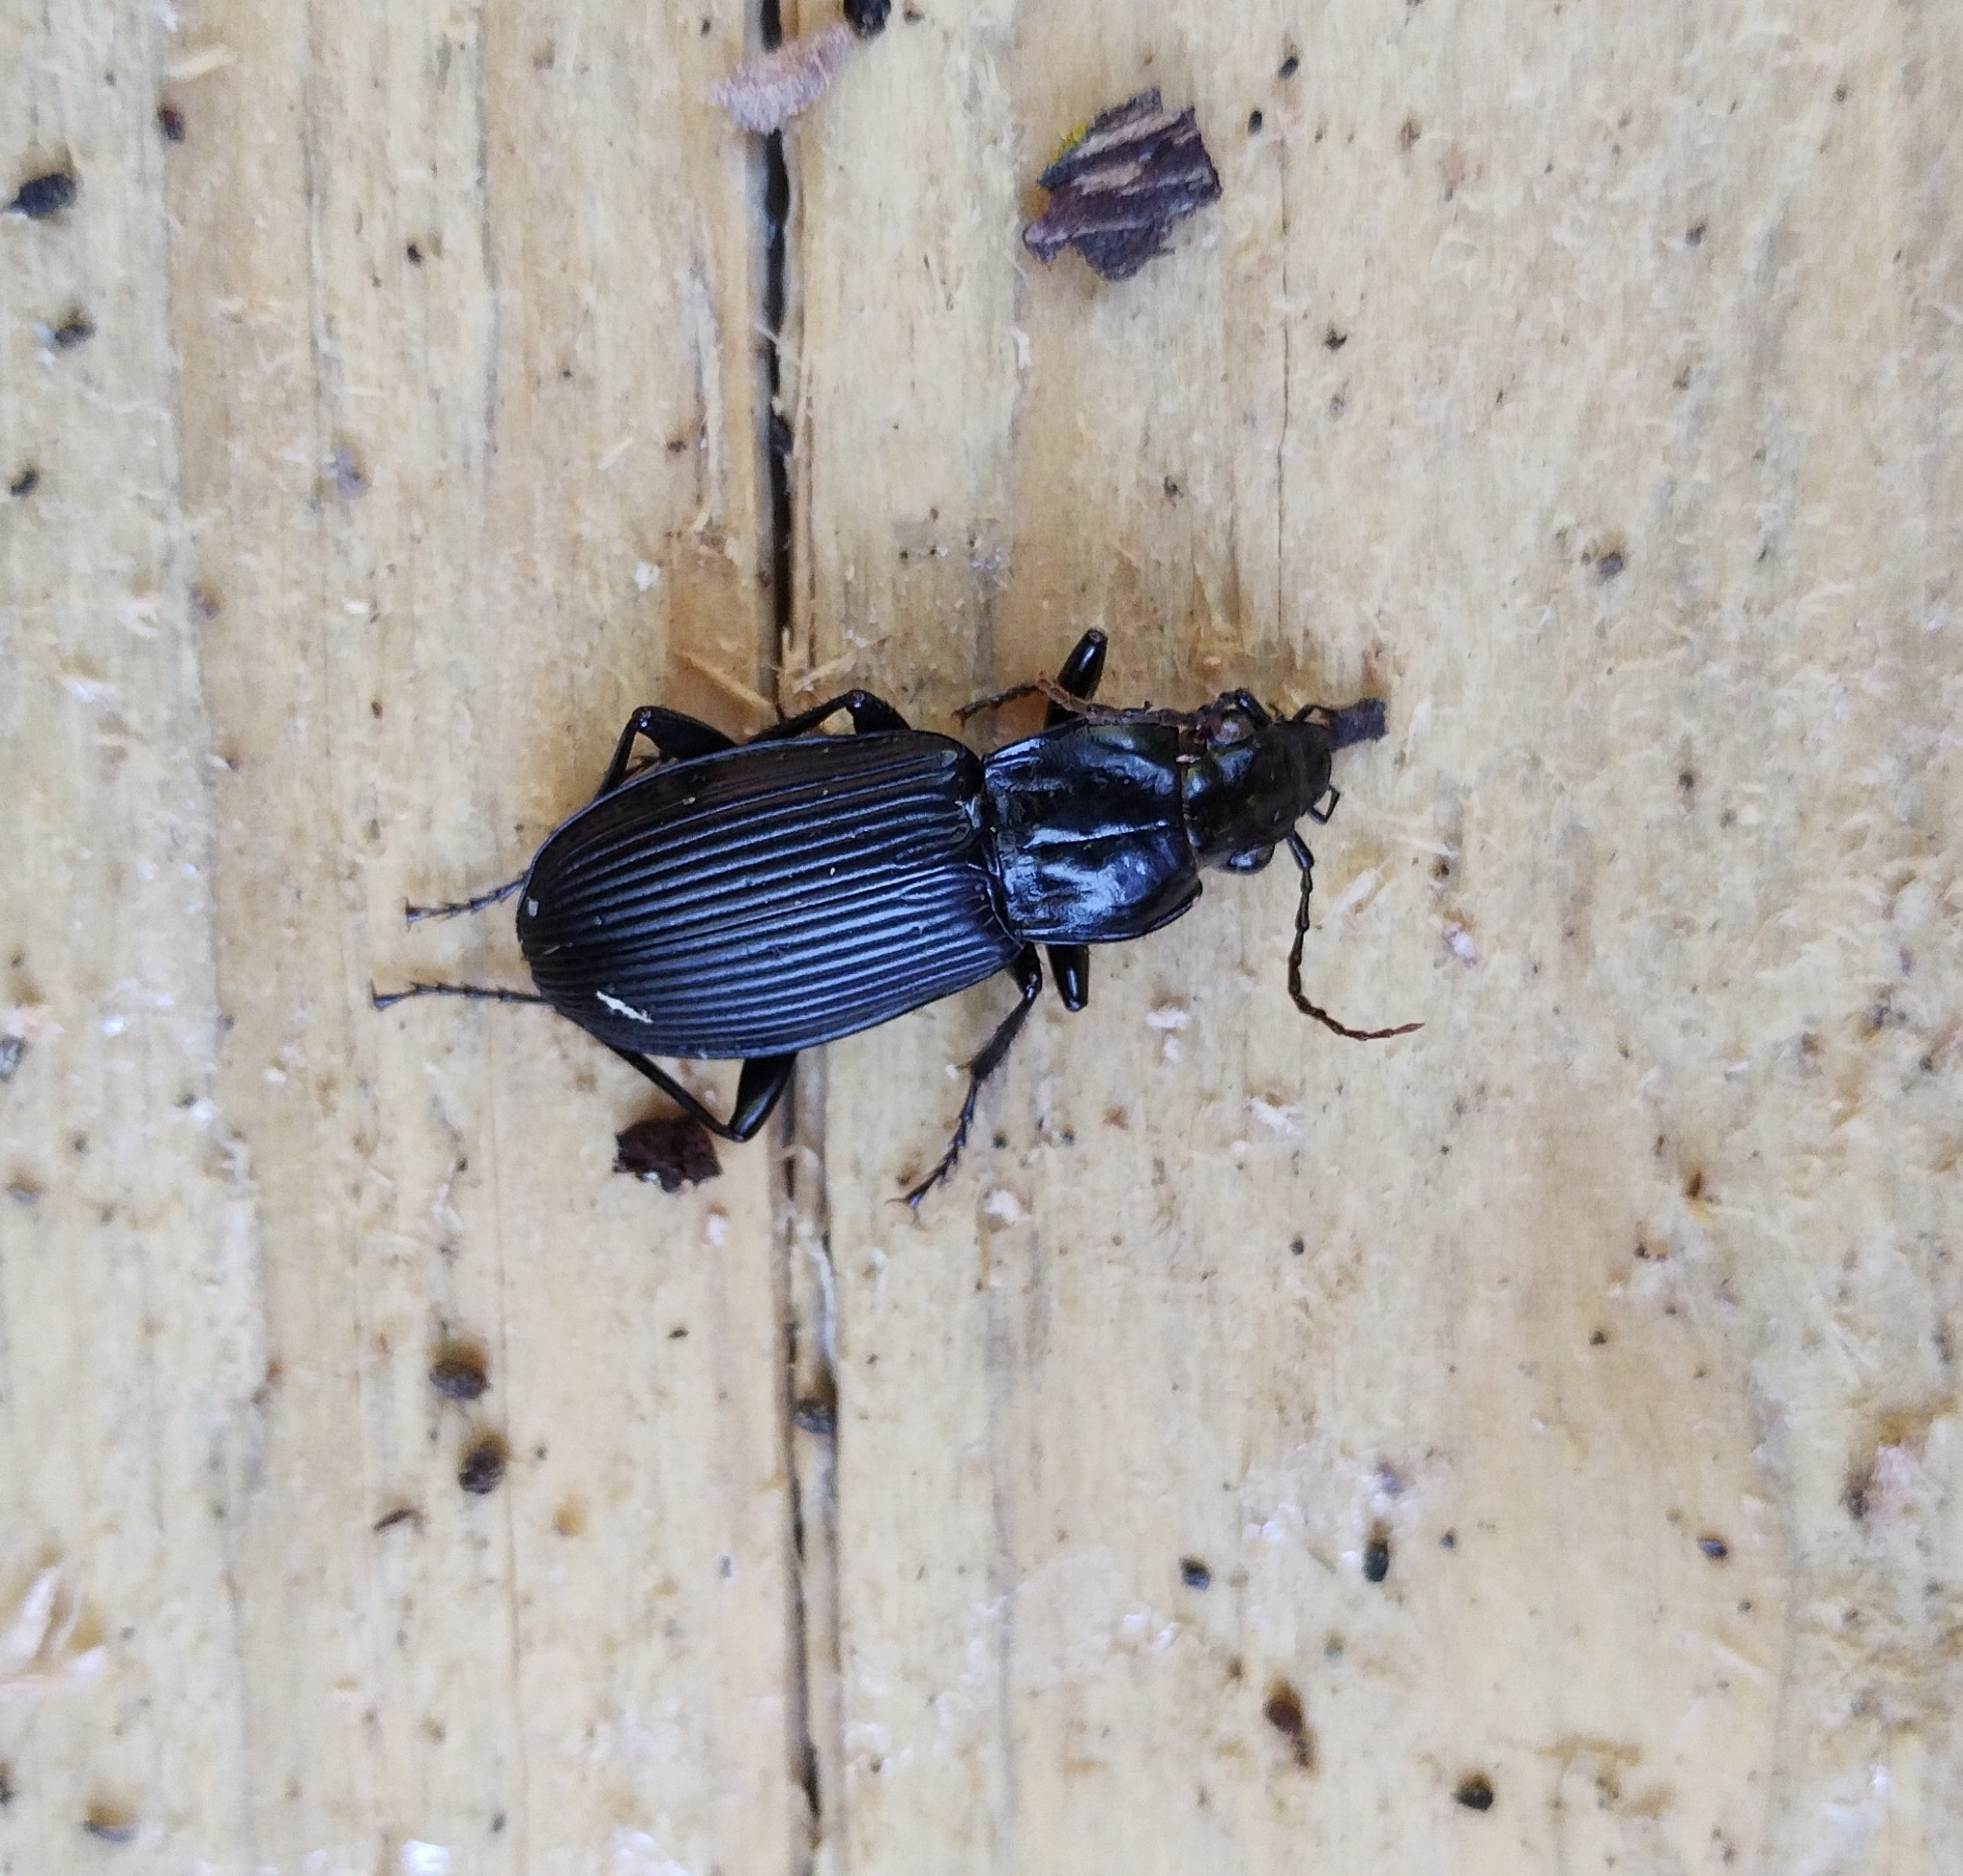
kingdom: Animalia
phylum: Arthropoda
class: Insecta
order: Coleoptera
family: Carabidae
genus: Pterostichus
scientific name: Pterostichus niger
